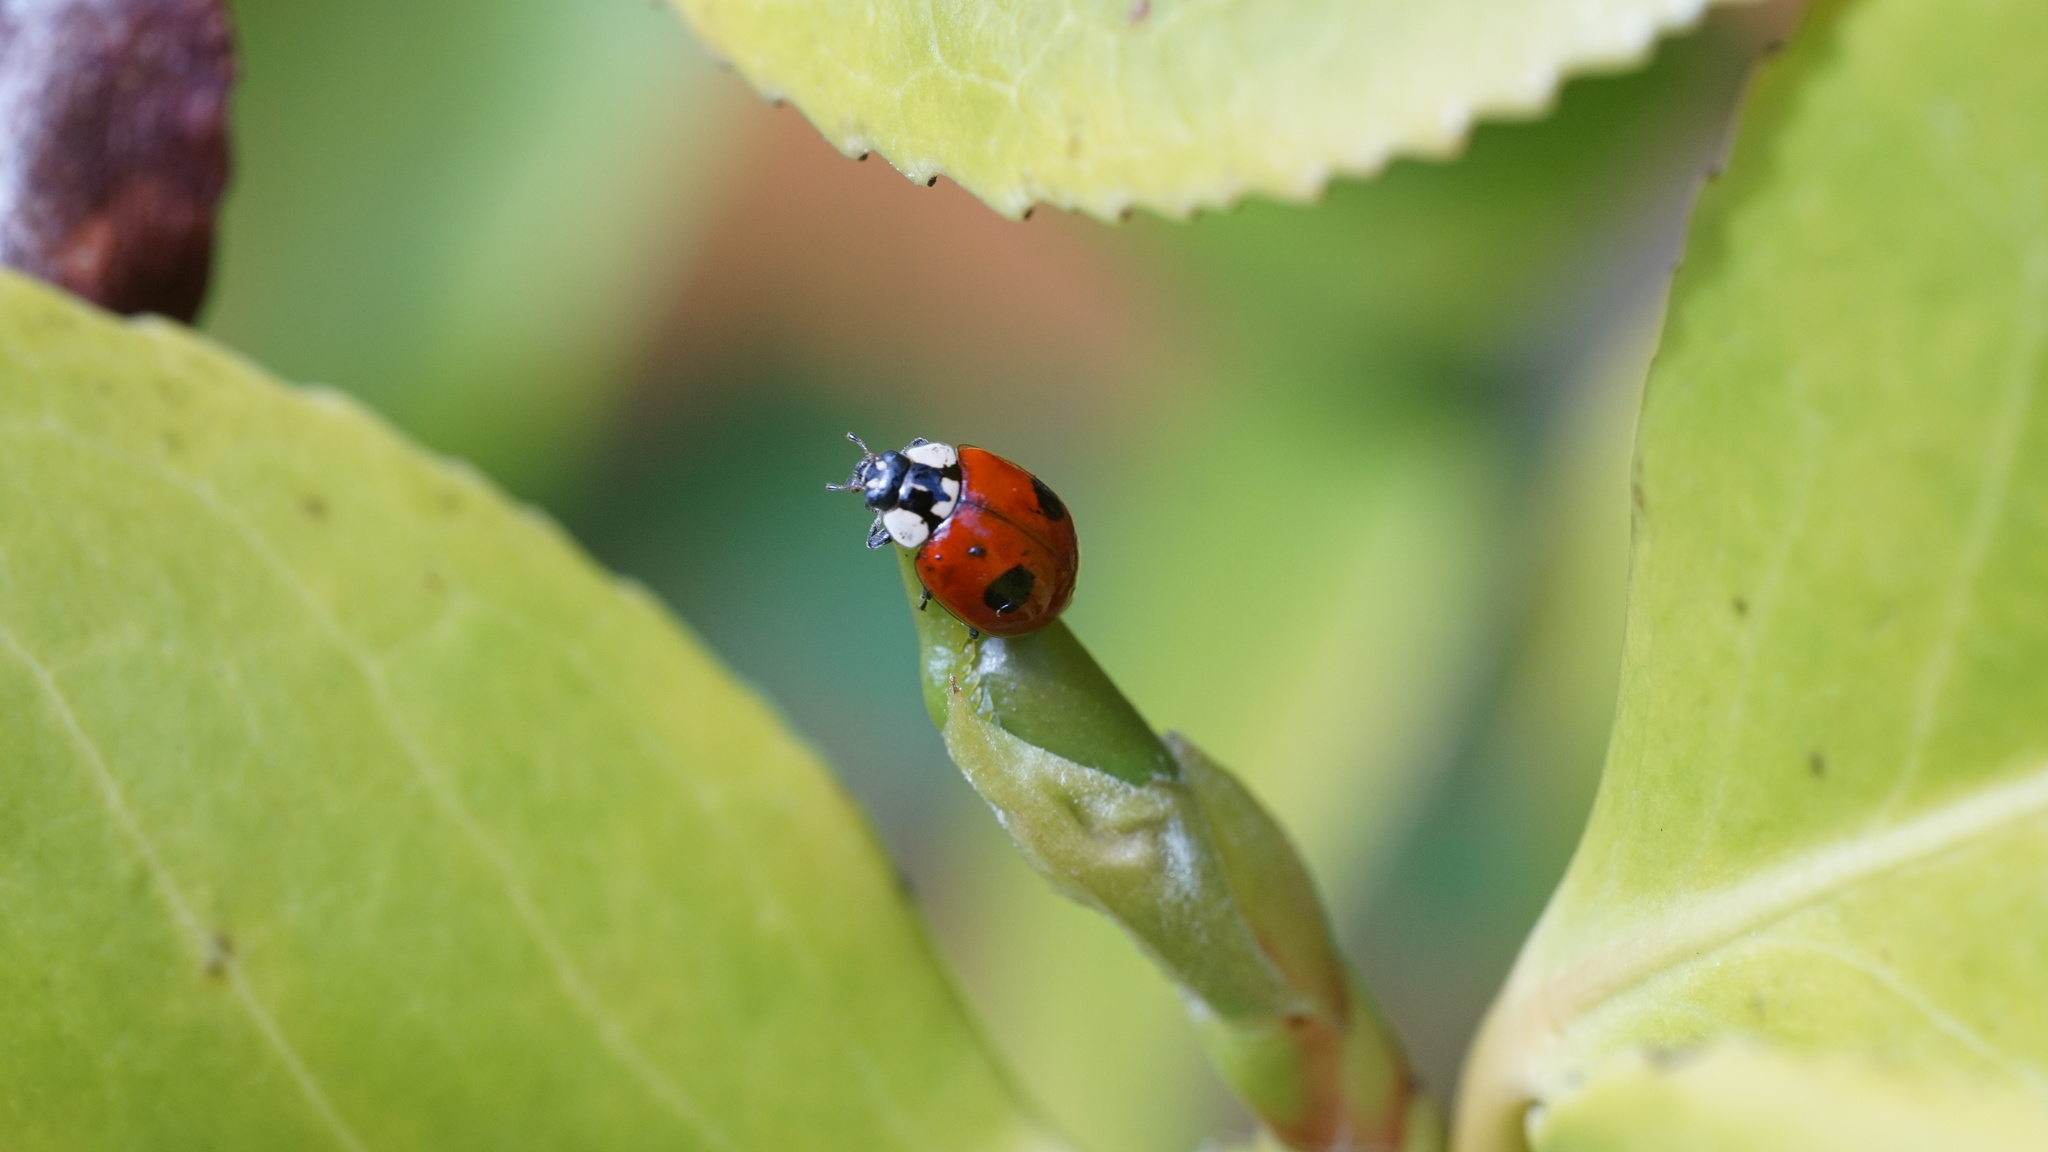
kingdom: Animalia
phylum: Arthropoda
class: Insecta
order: Coleoptera
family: Coccinellidae
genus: Adalia
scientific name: Adalia bipunctata
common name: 2-spot ladybird
